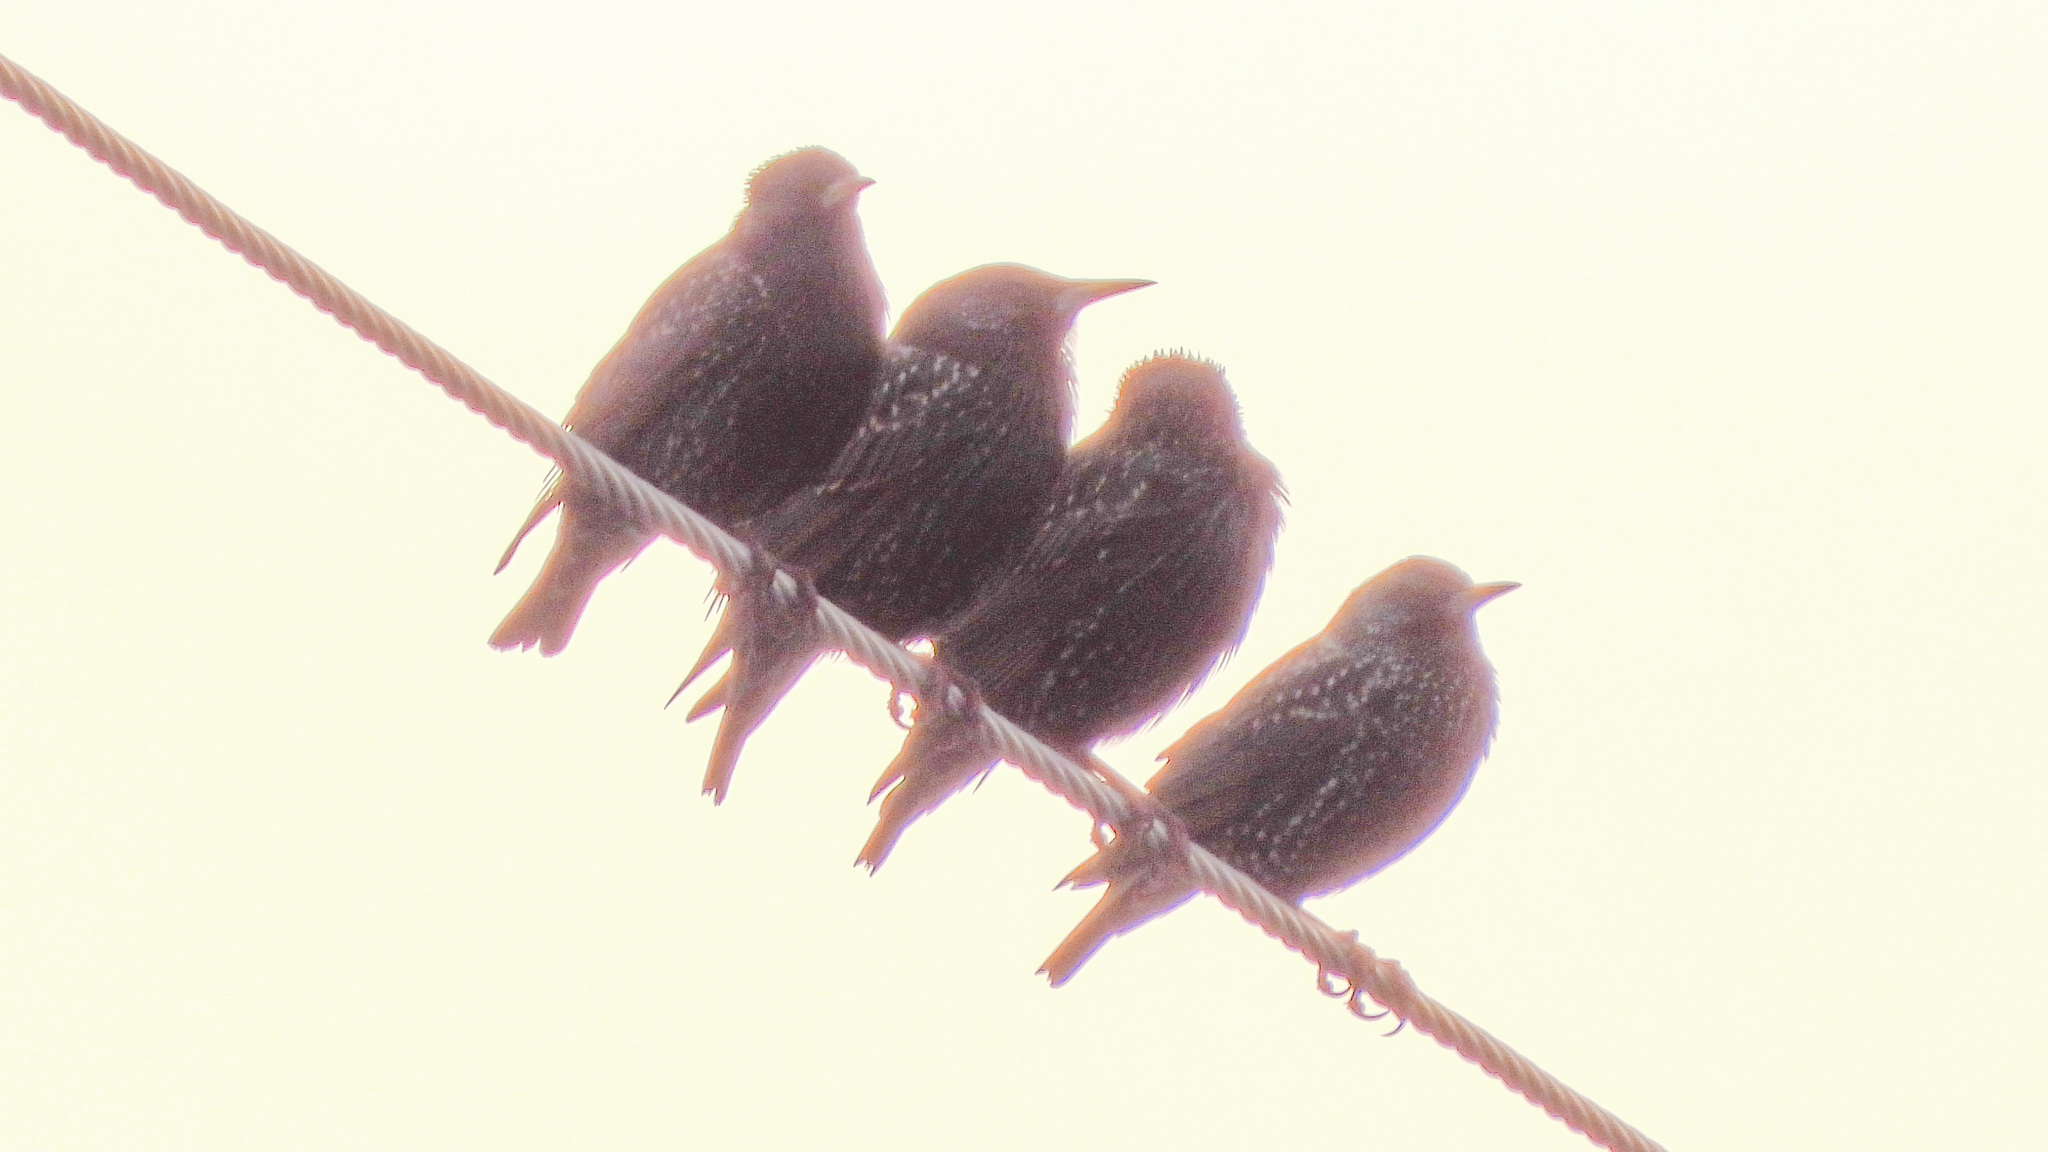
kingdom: Animalia
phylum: Chordata
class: Aves
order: Passeriformes
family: Sturnidae
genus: Sturnus
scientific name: Sturnus vulgaris
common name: Common starling
